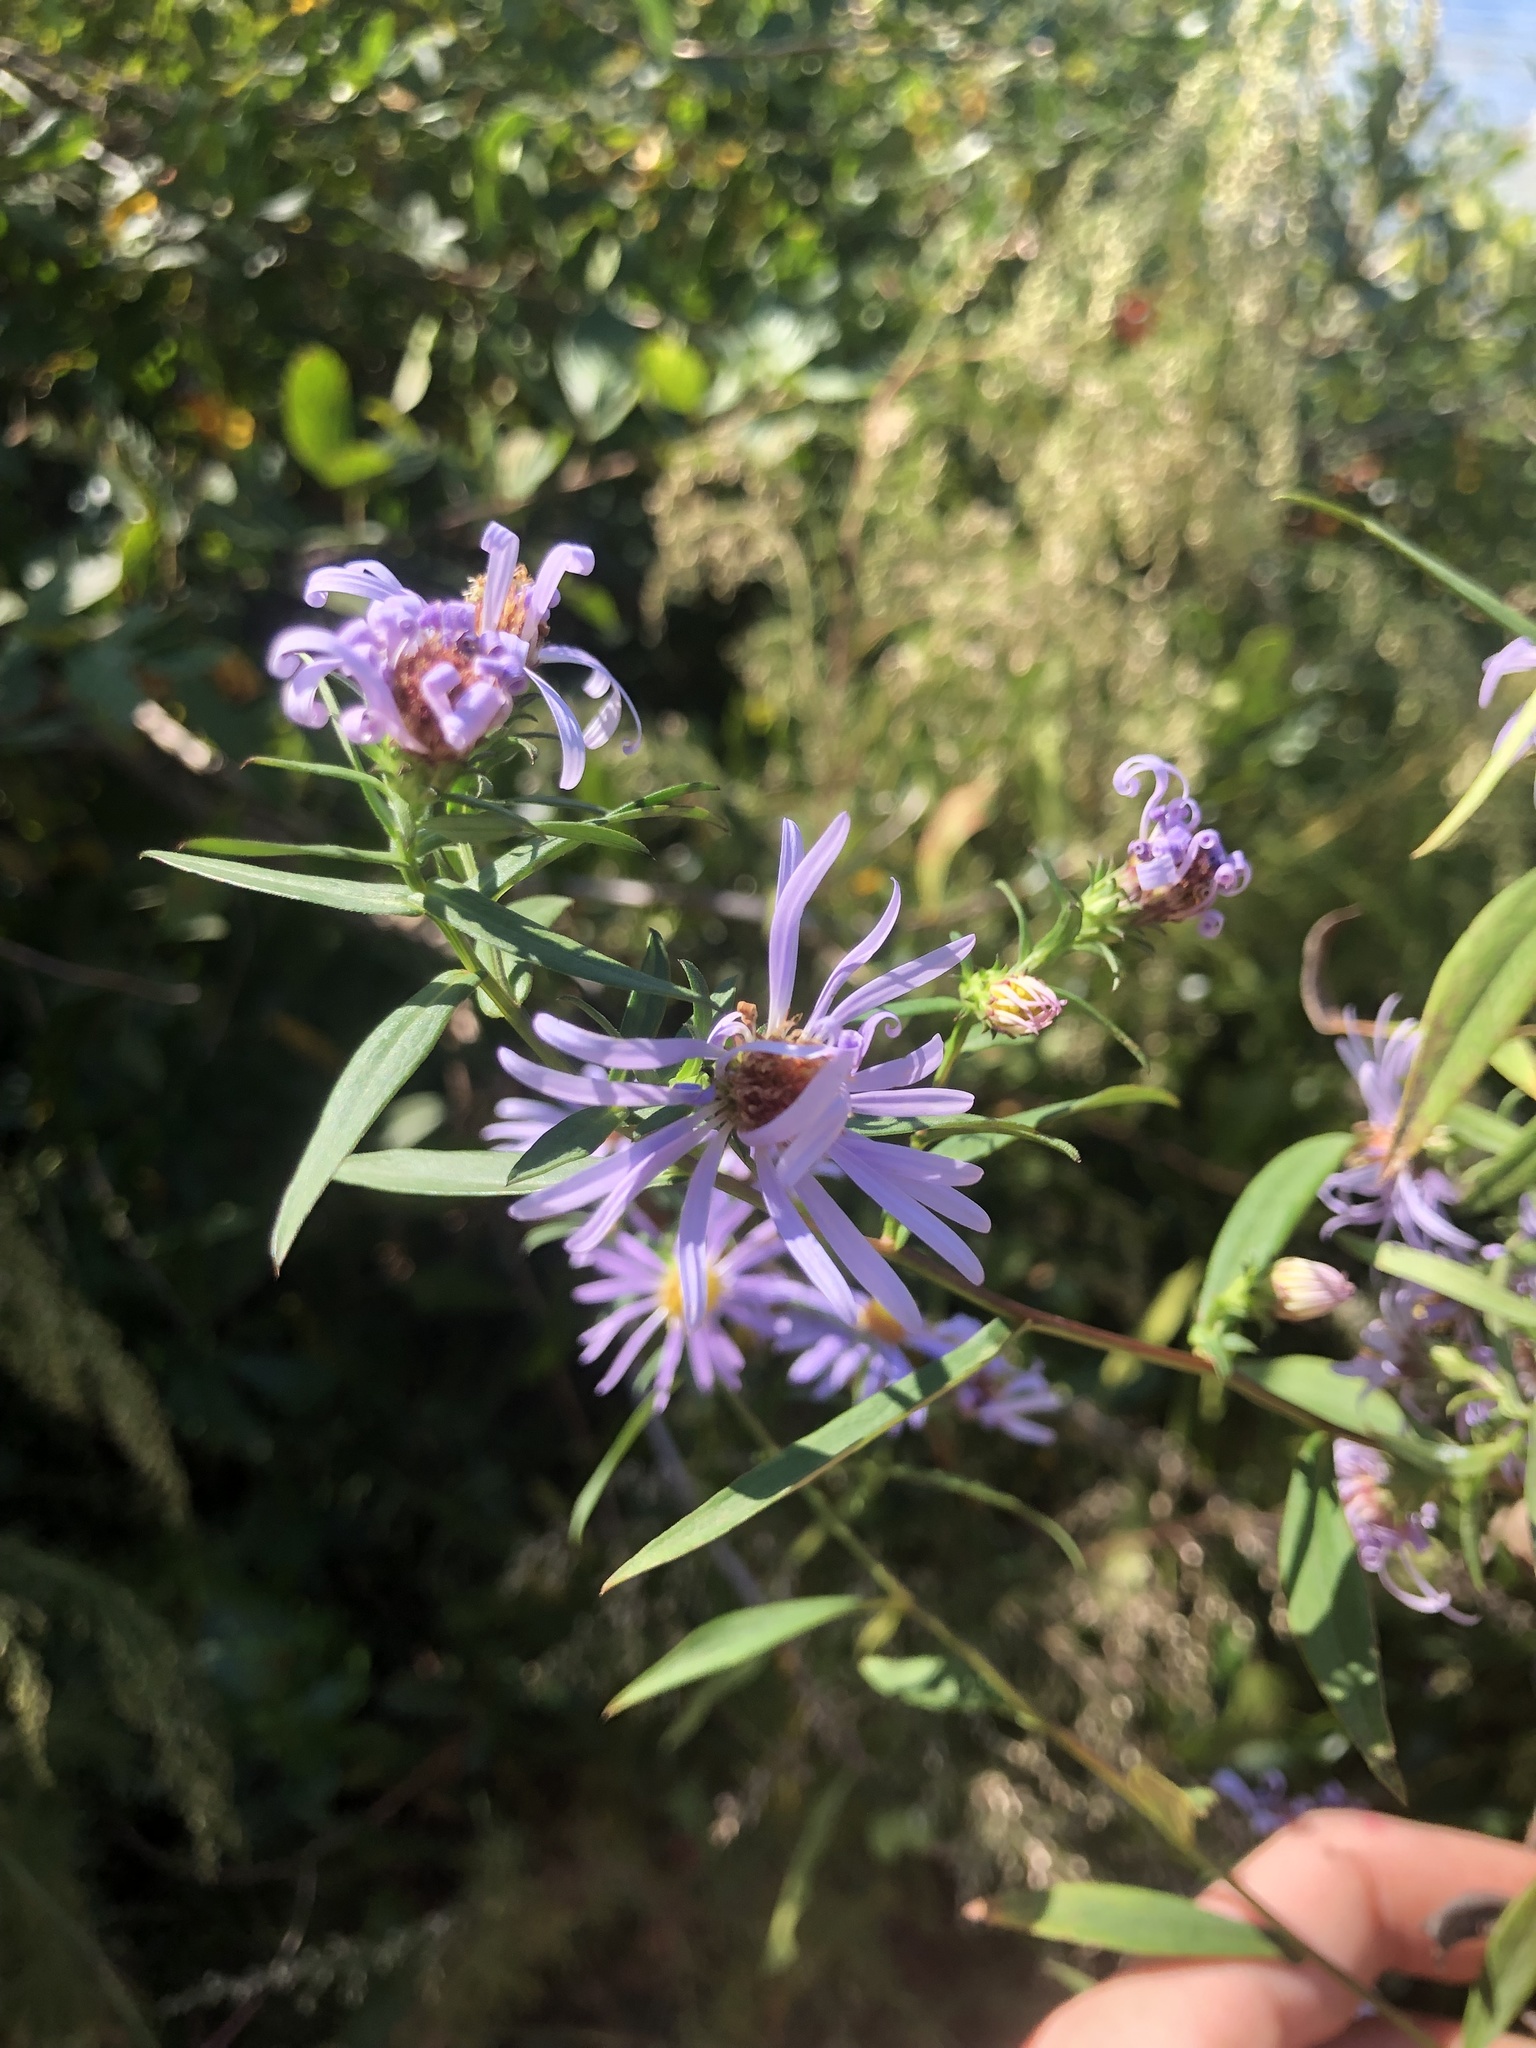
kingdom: Plantae
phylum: Tracheophyta
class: Magnoliopsida
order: Asterales
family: Asteraceae
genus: Symphyotrichum
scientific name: Symphyotrichum novi-belgii
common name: Michaelmas daisy
